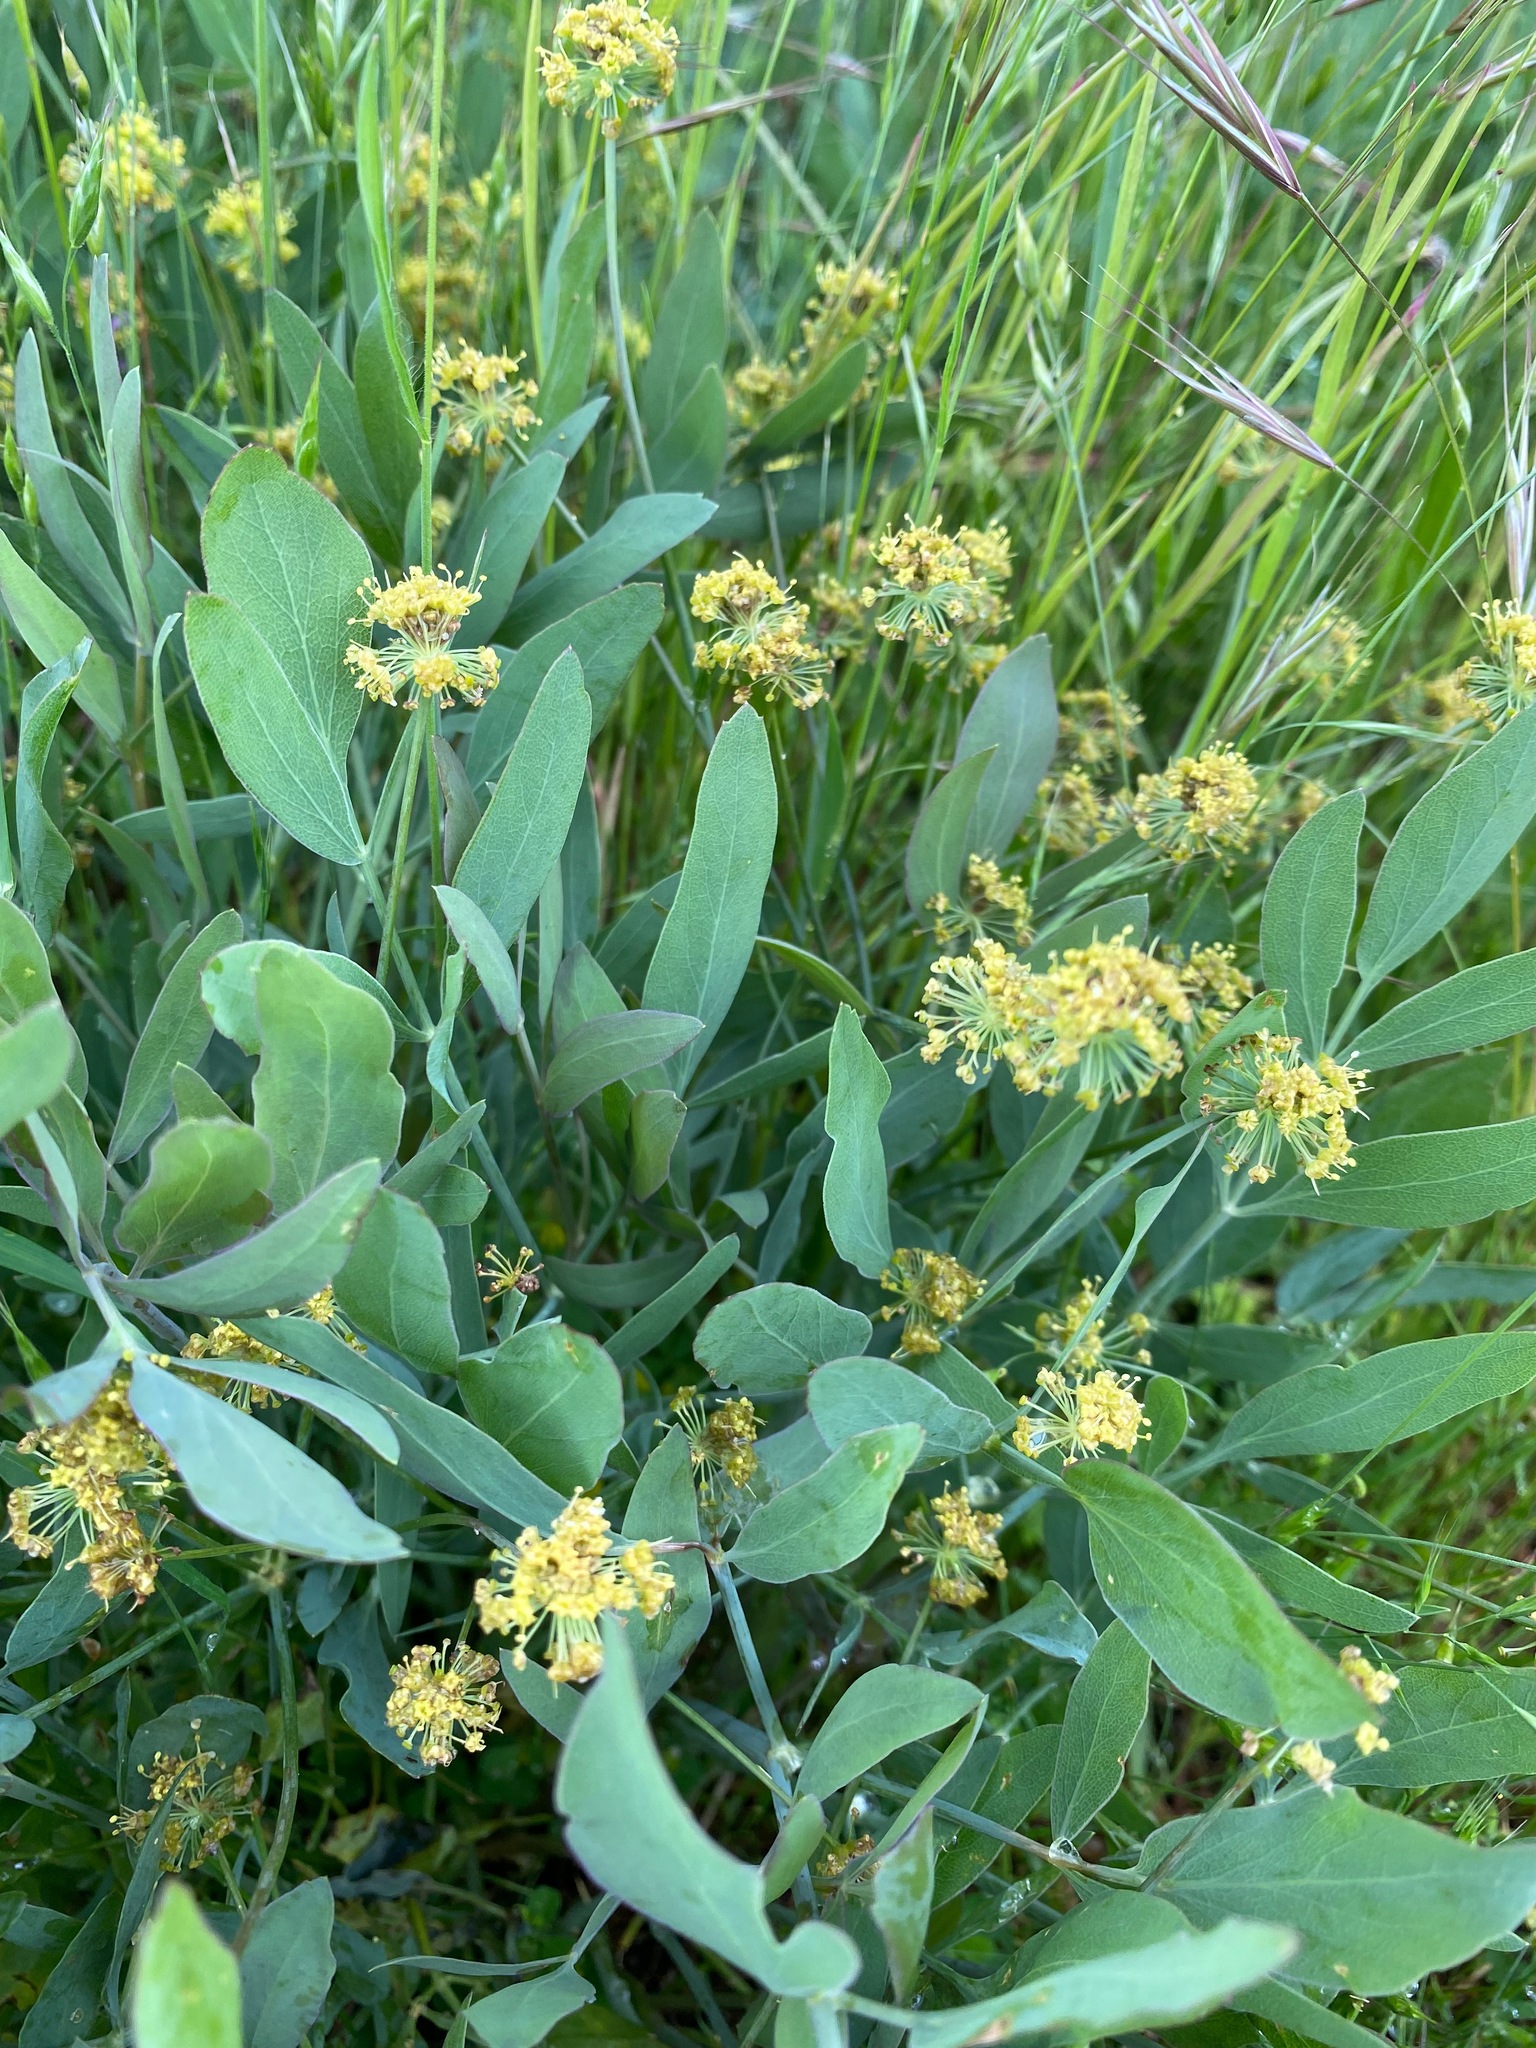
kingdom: Plantae
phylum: Tracheophyta
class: Magnoliopsida
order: Apiales
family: Apiaceae
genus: Lomatium
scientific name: Lomatium nudicaule
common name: Pestle lomatium
